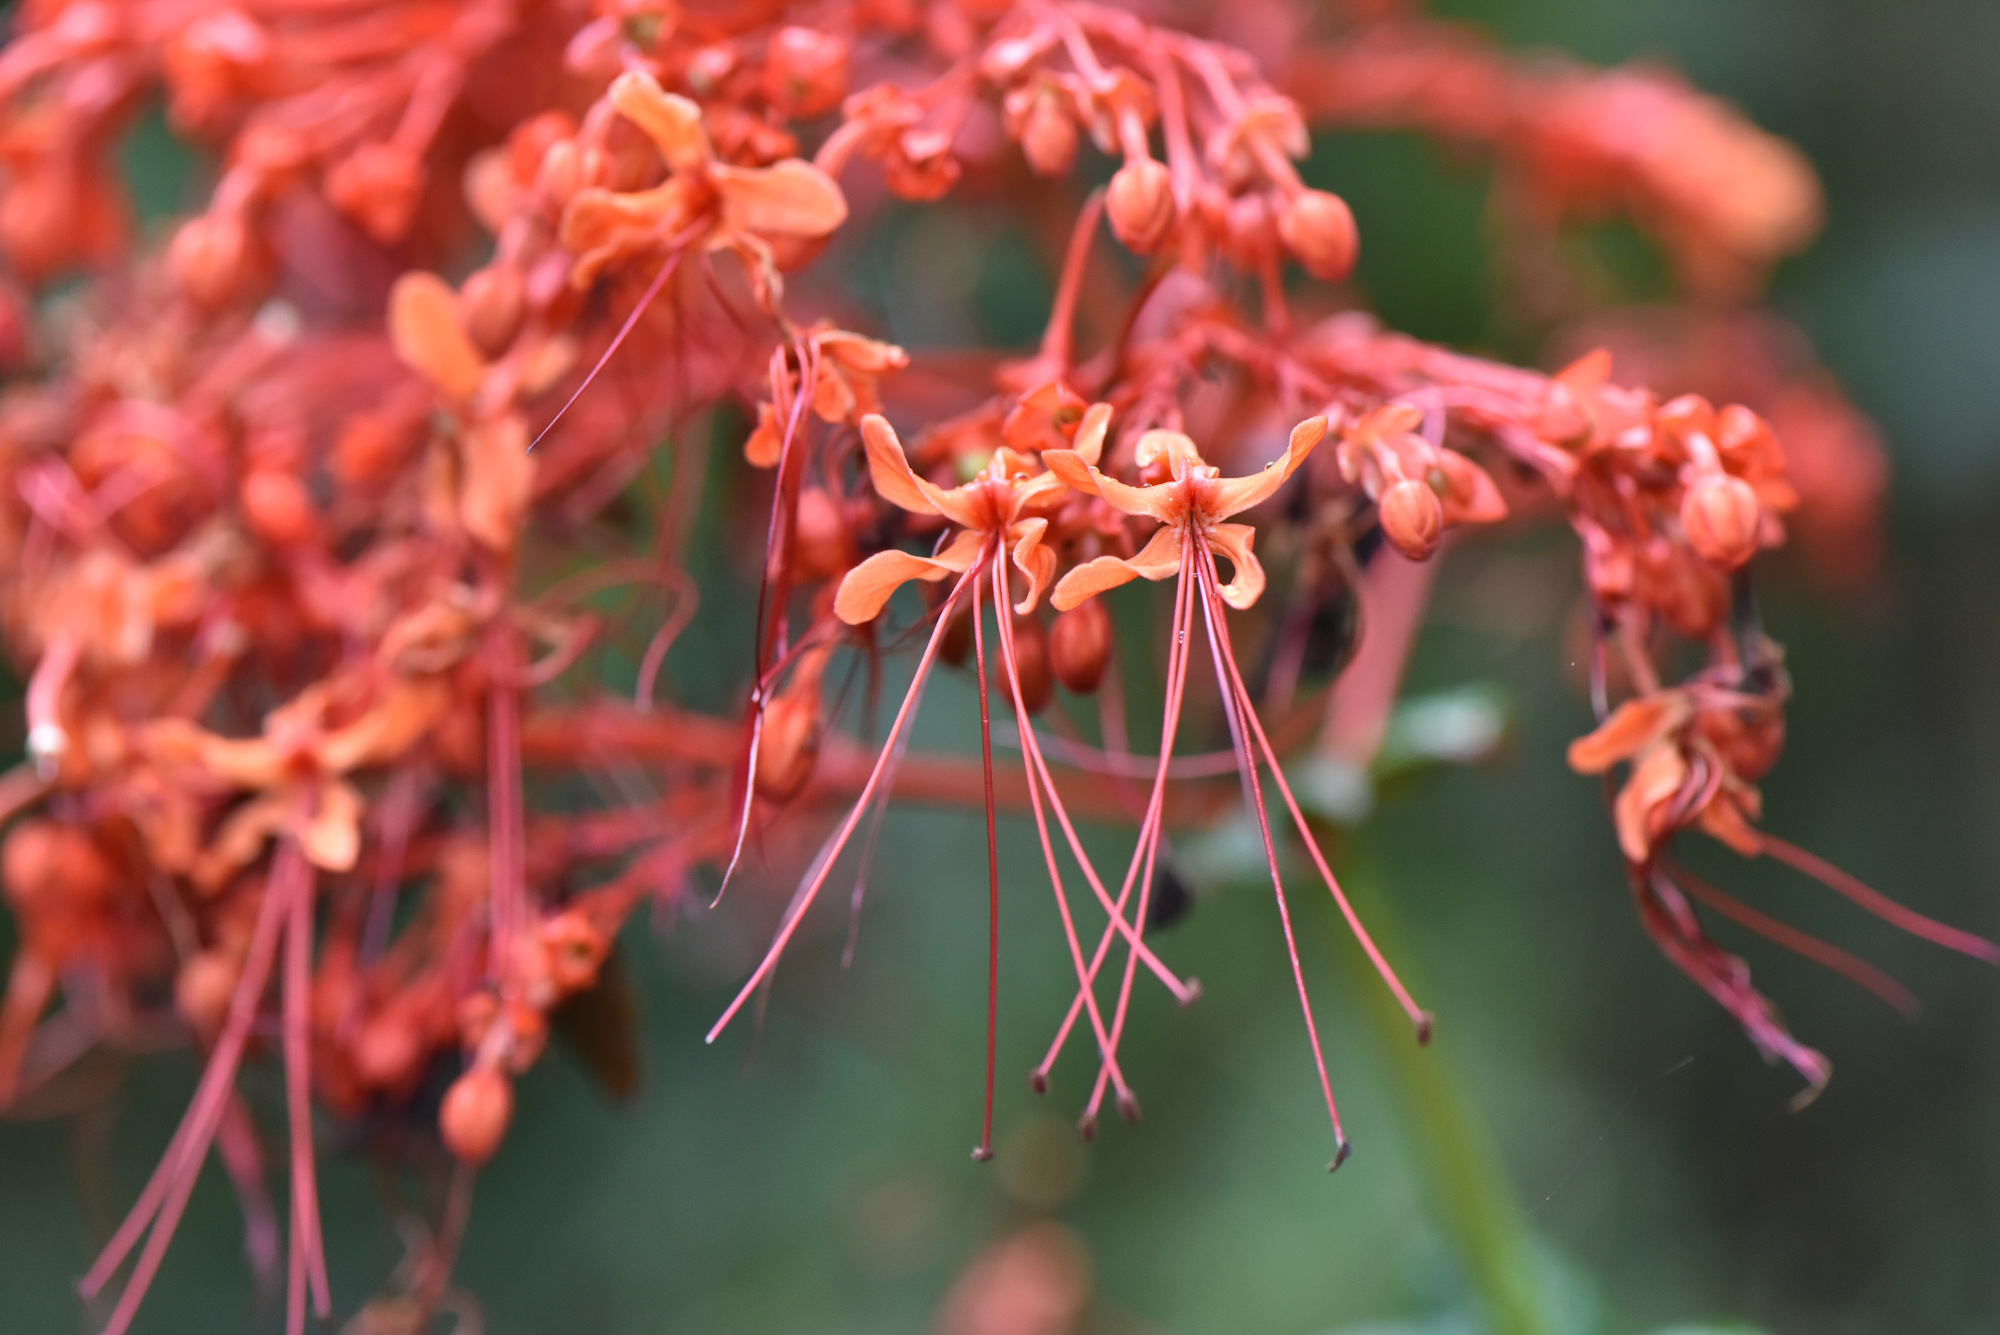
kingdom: Plantae
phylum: Tracheophyta
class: Magnoliopsida
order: Lamiales
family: Lamiaceae
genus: Clerodendrum
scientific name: Clerodendrum japonicum
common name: Japanese glorybower
